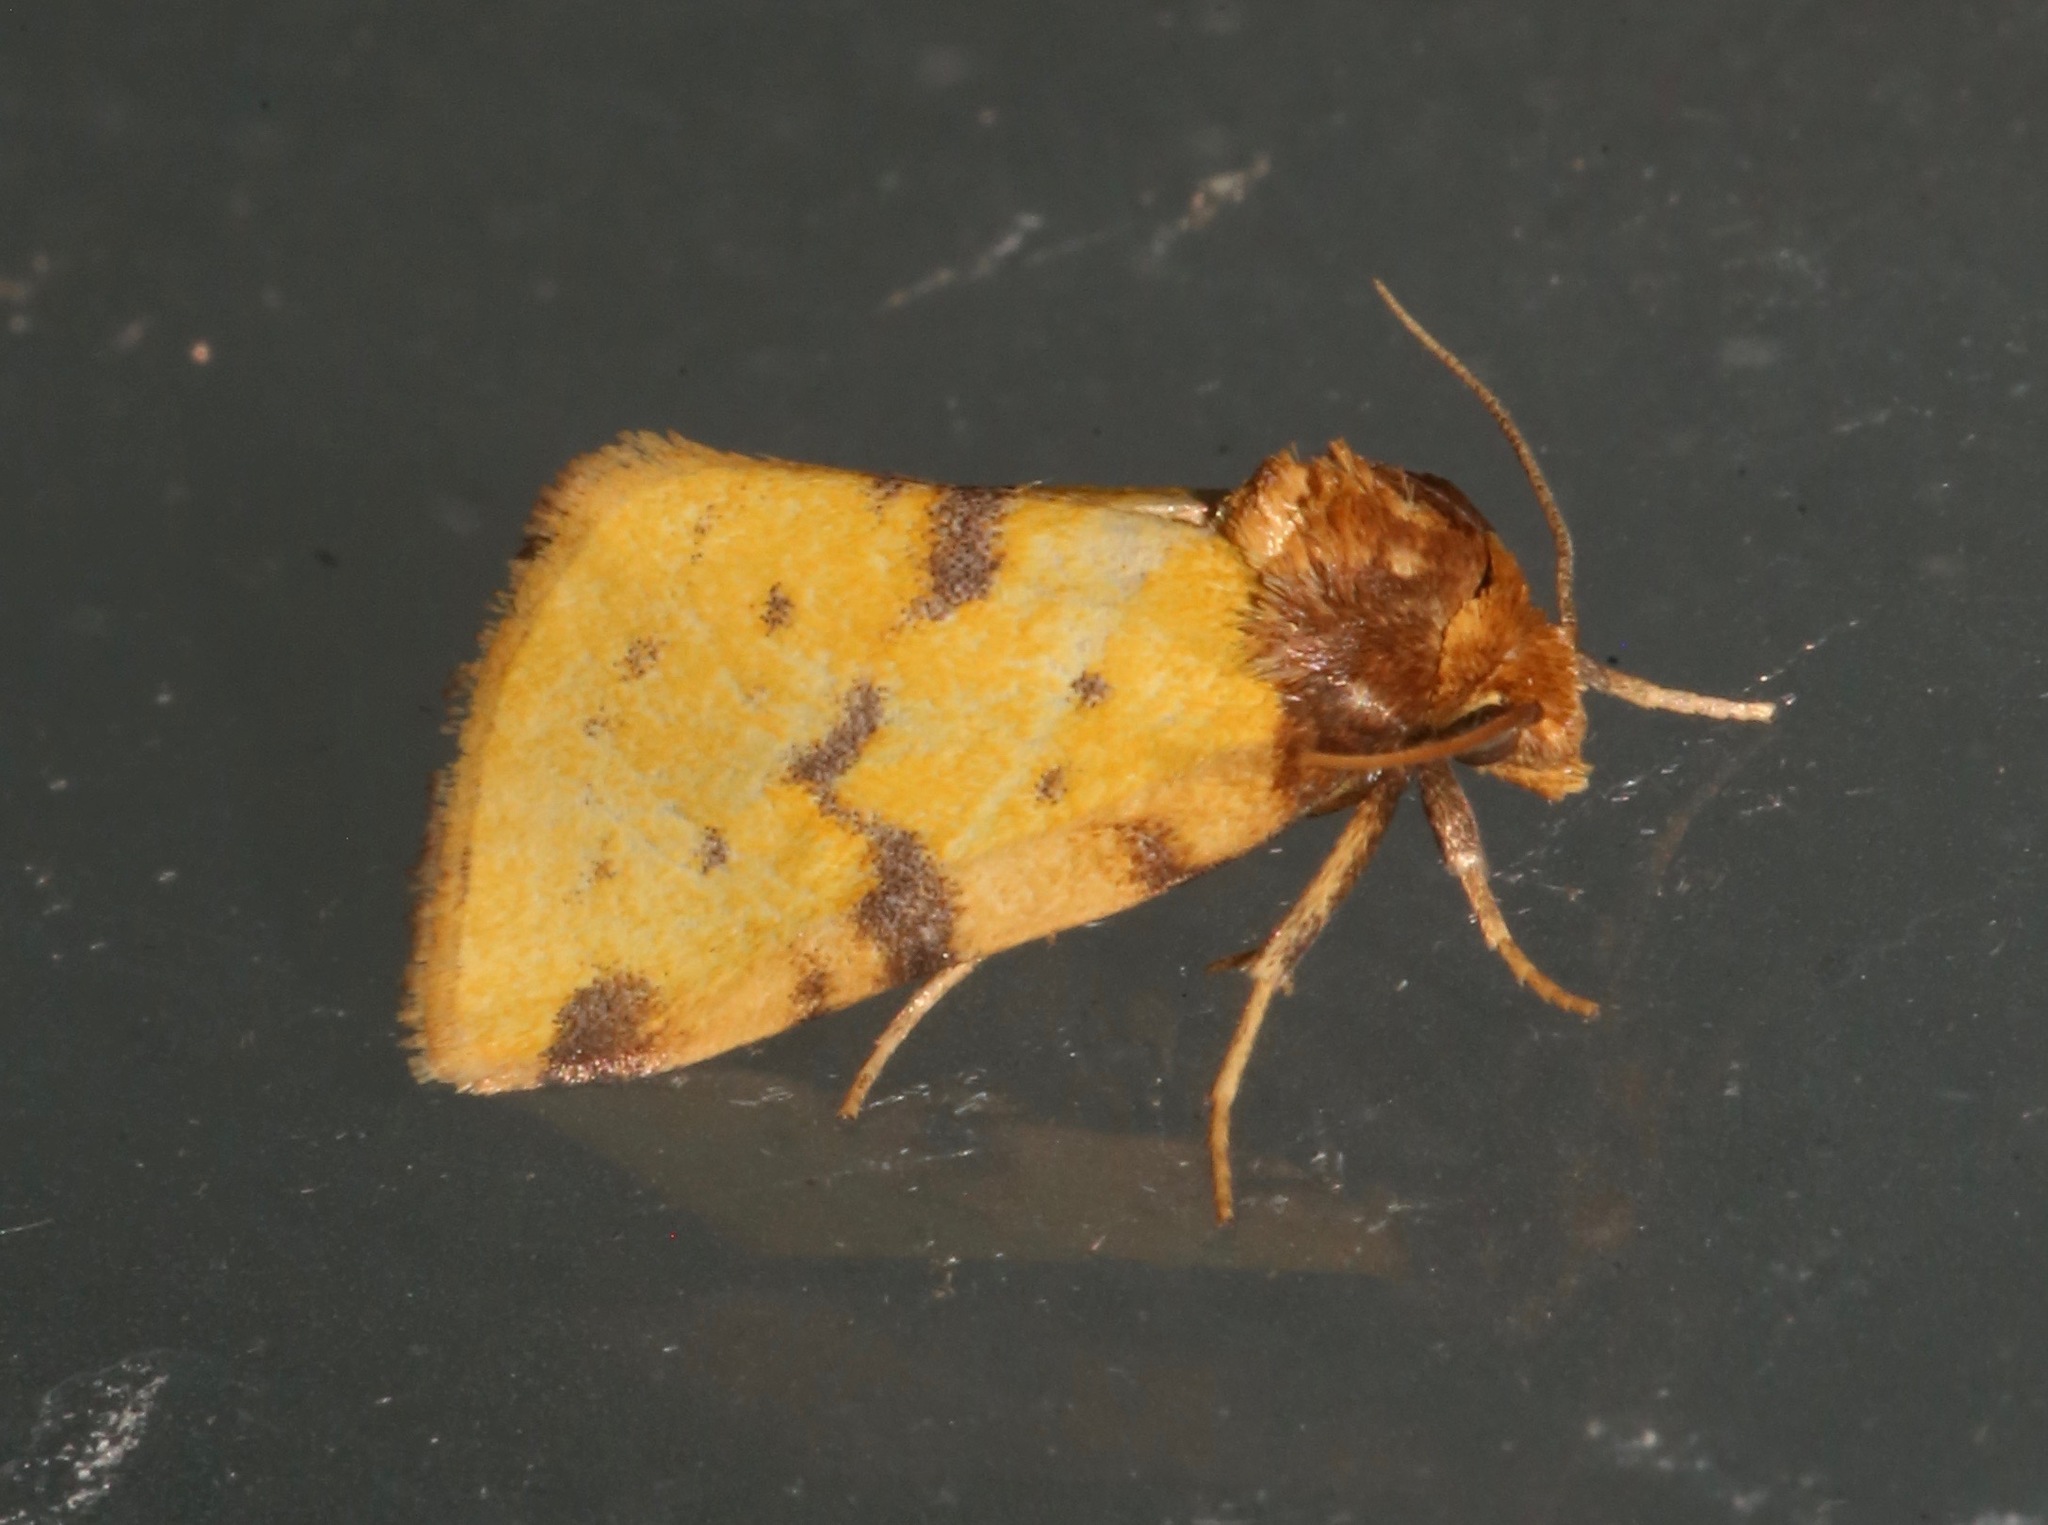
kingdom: Animalia
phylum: Arthropoda
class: Insecta
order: Lepidoptera
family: Noctuidae
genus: Azenia
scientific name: Azenia obtusa
